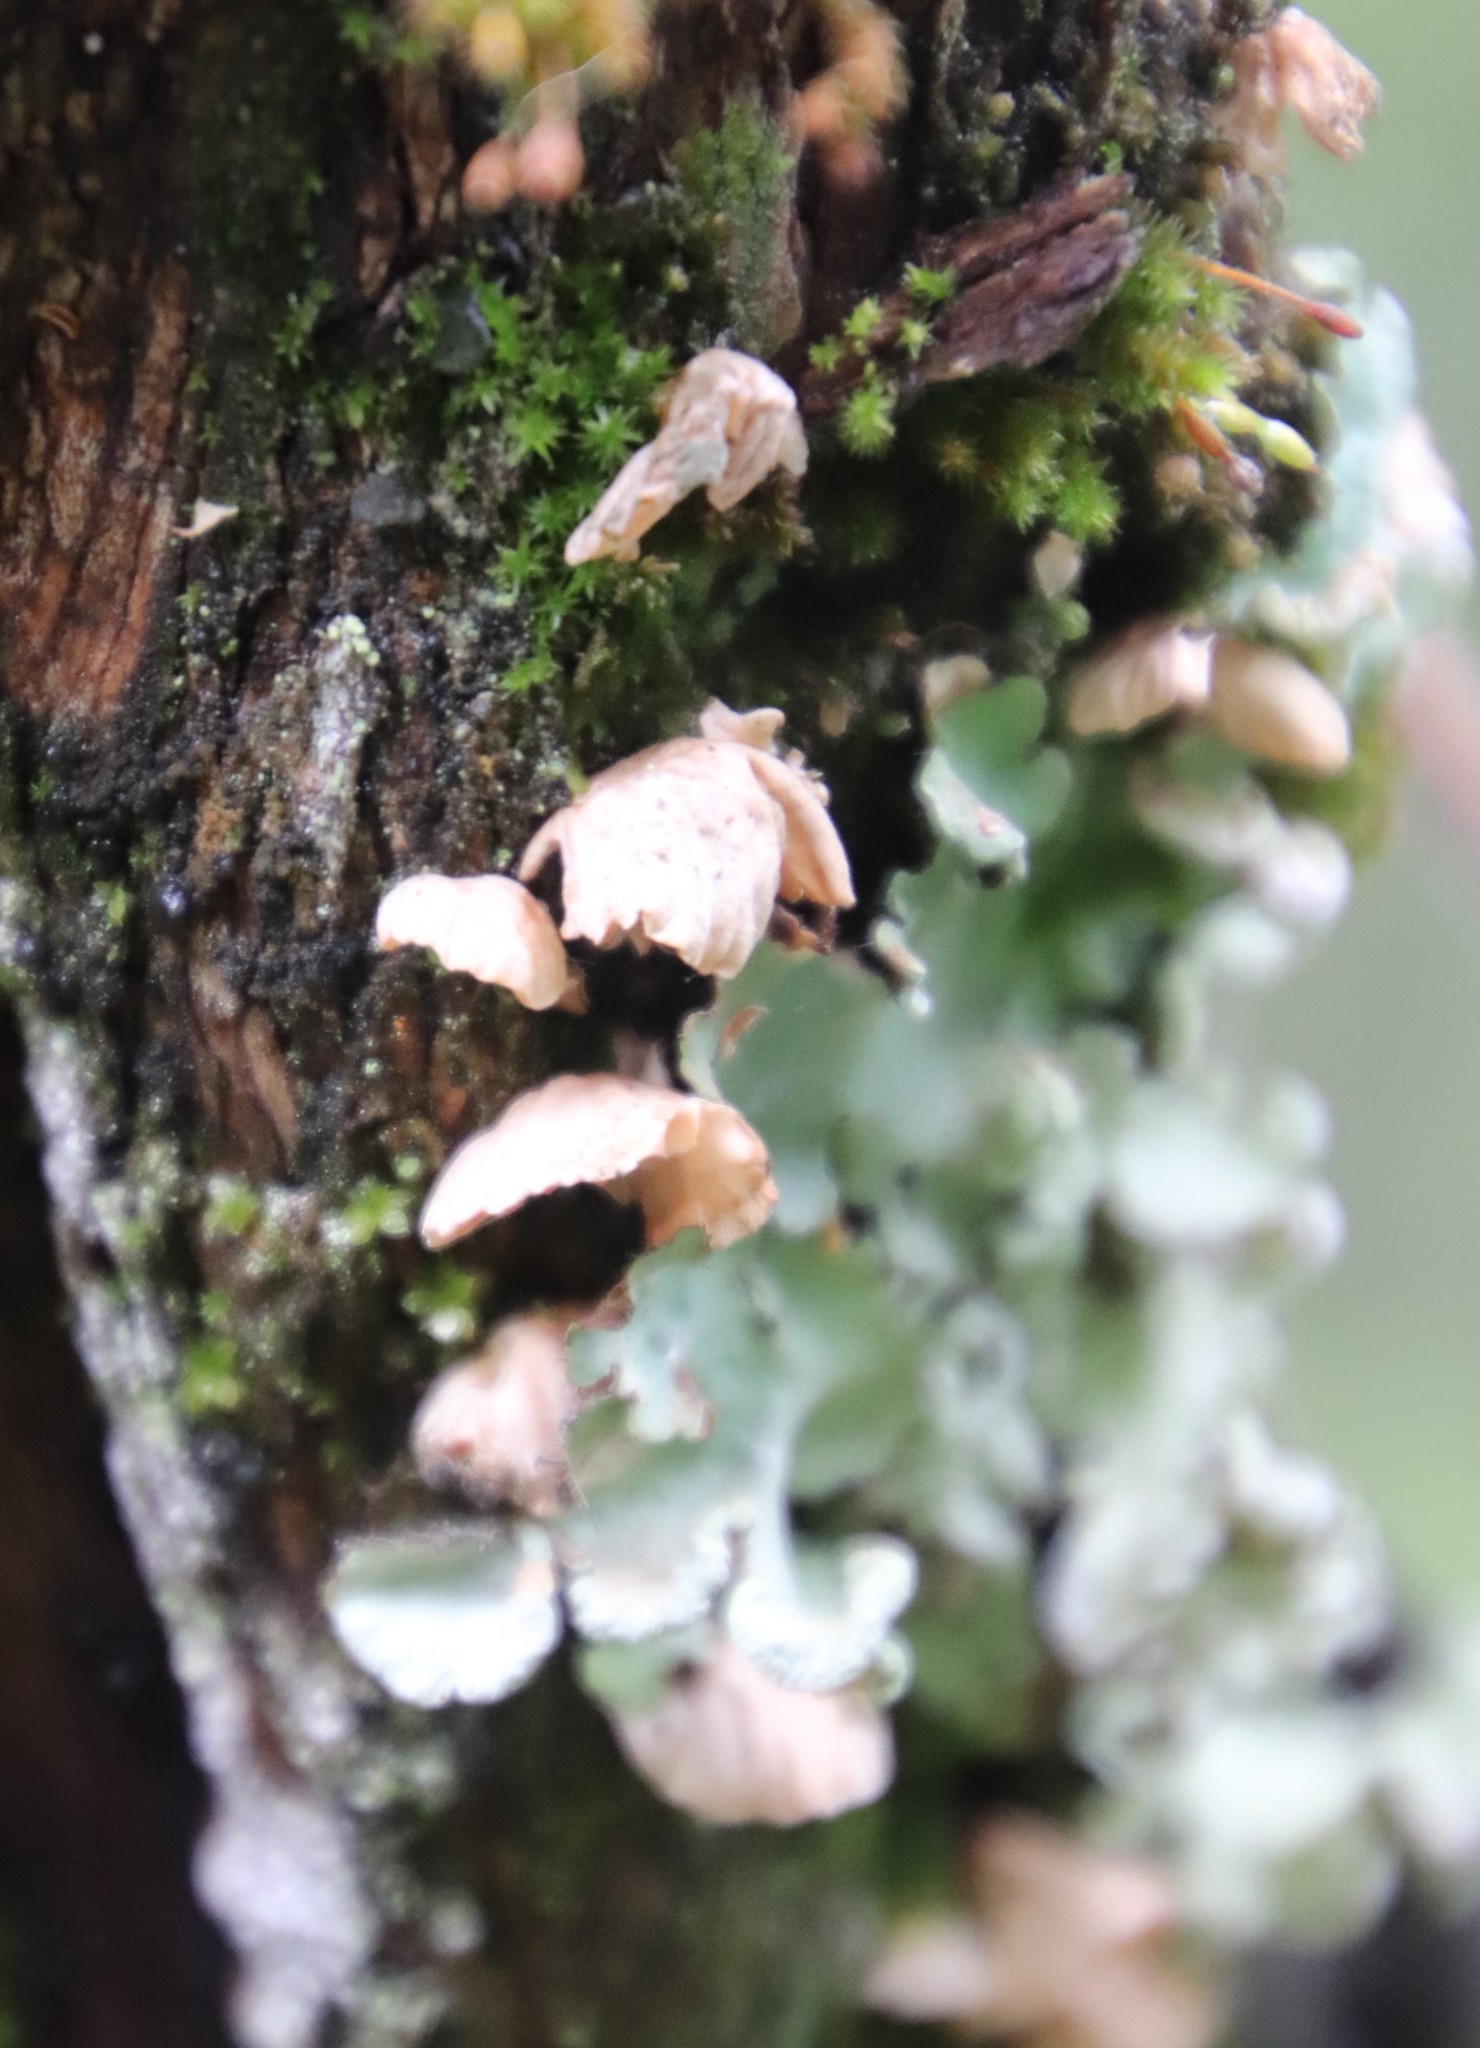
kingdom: Fungi
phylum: Basidiomycota
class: Agaricomycetes
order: Agaricales
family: Schizophyllaceae
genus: Schizophyllum
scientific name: Schizophyllum commune
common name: Common porecrust
